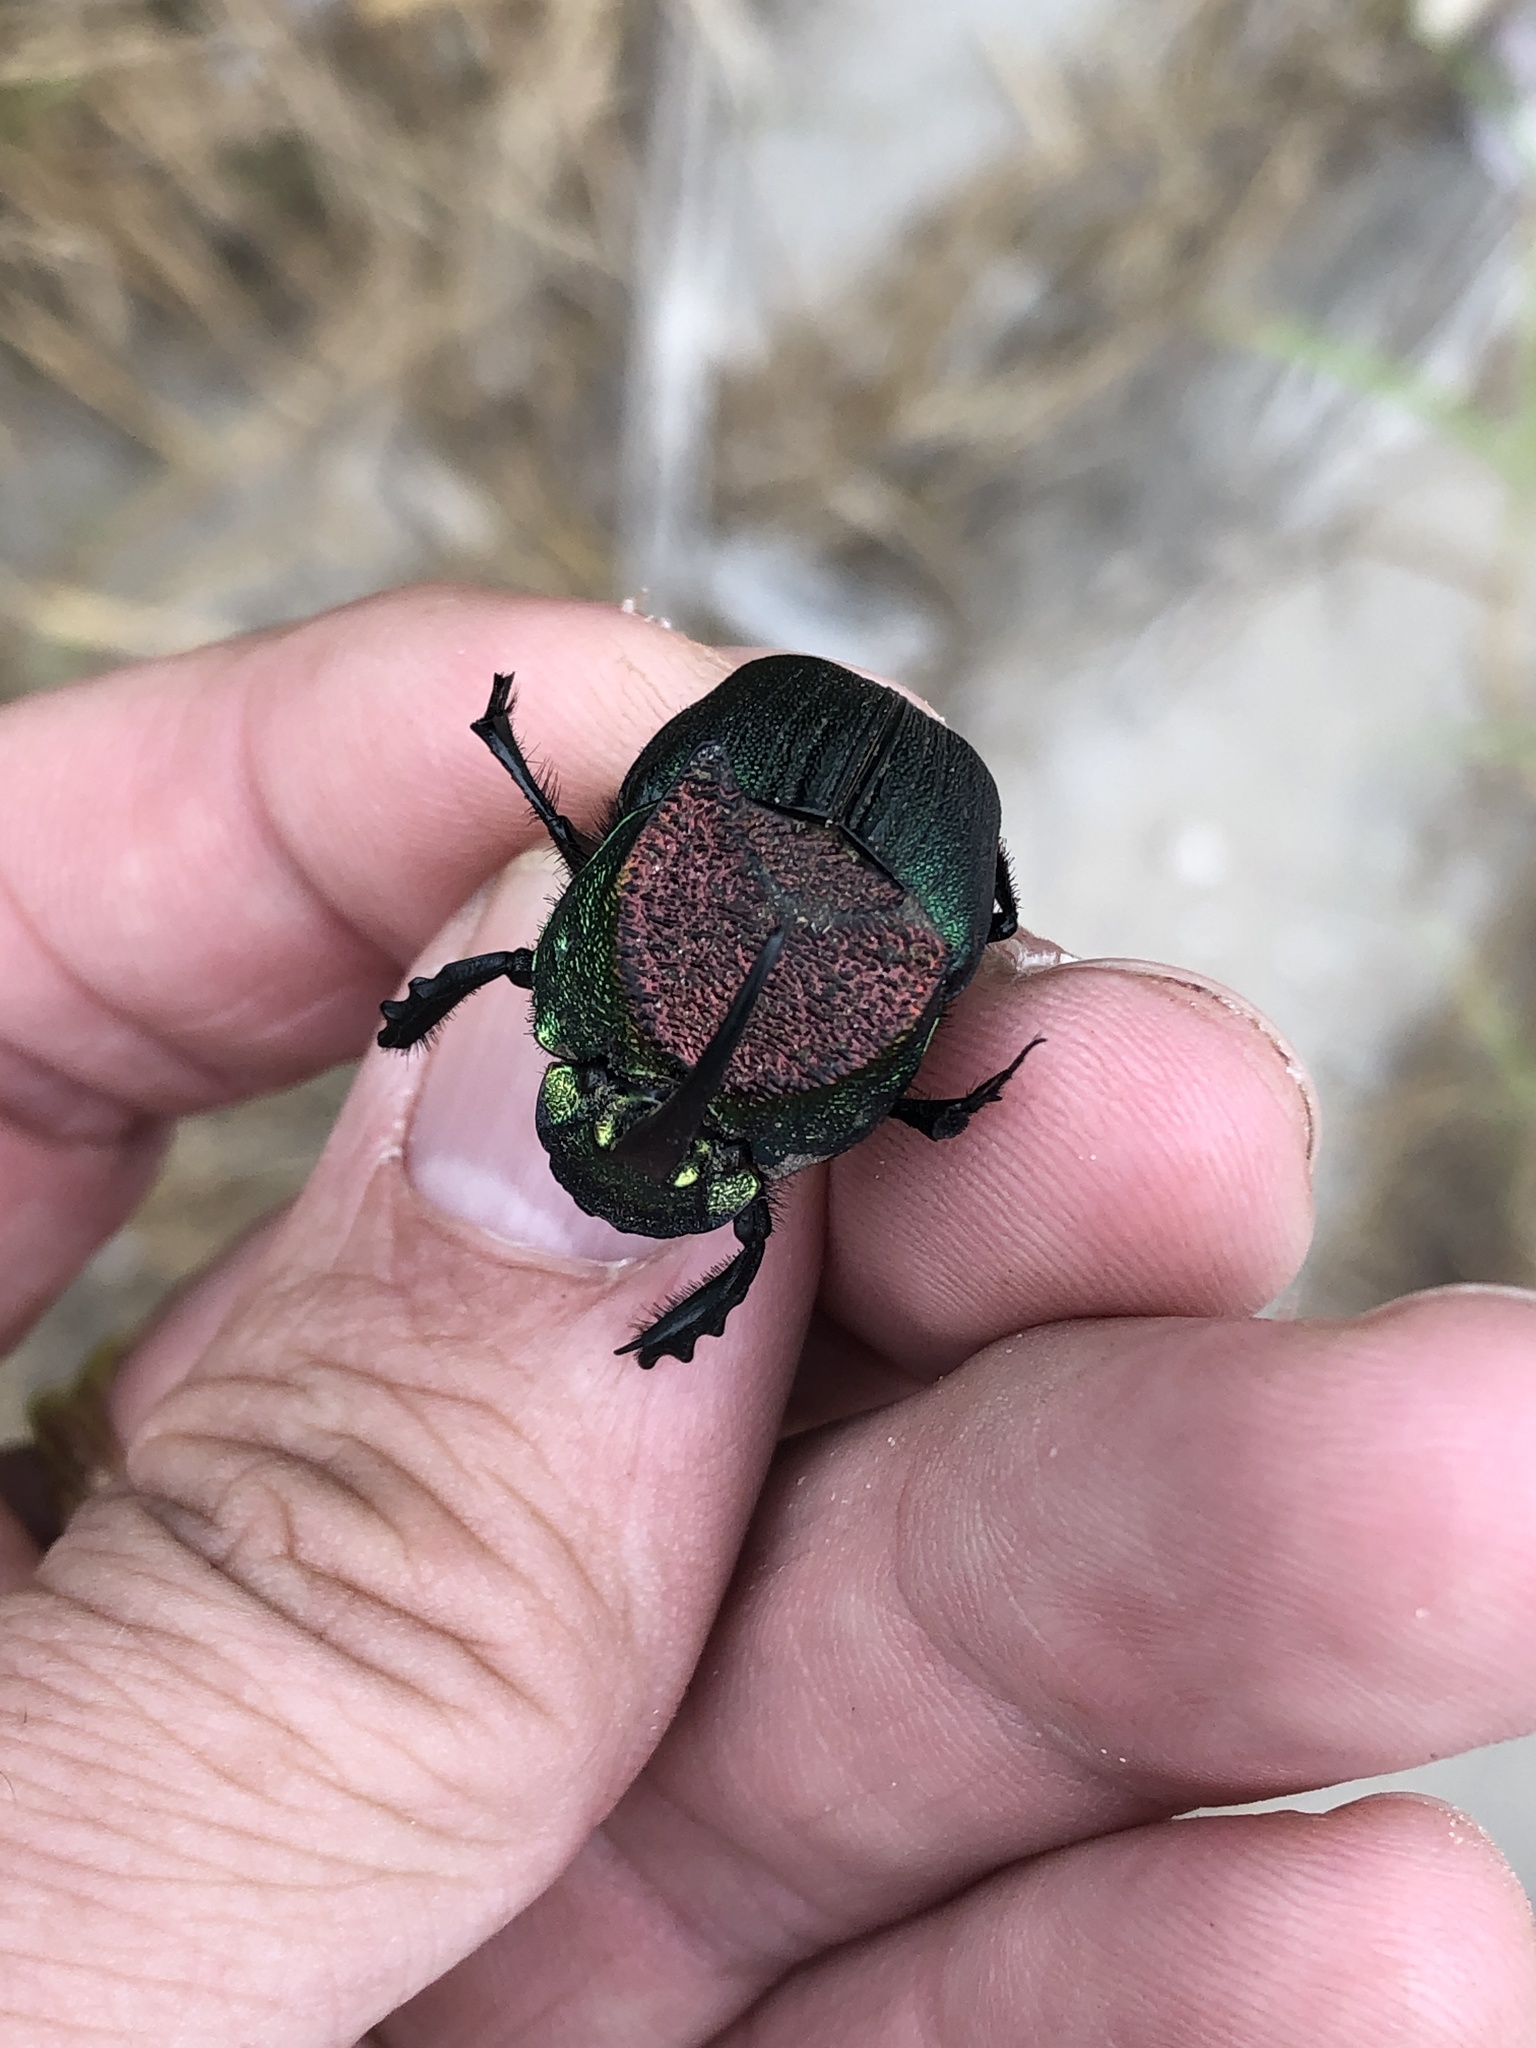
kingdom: Animalia
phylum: Arthropoda
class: Insecta
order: Coleoptera
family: Scarabaeidae
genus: Phanaeus
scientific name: Phanaeus difformis
